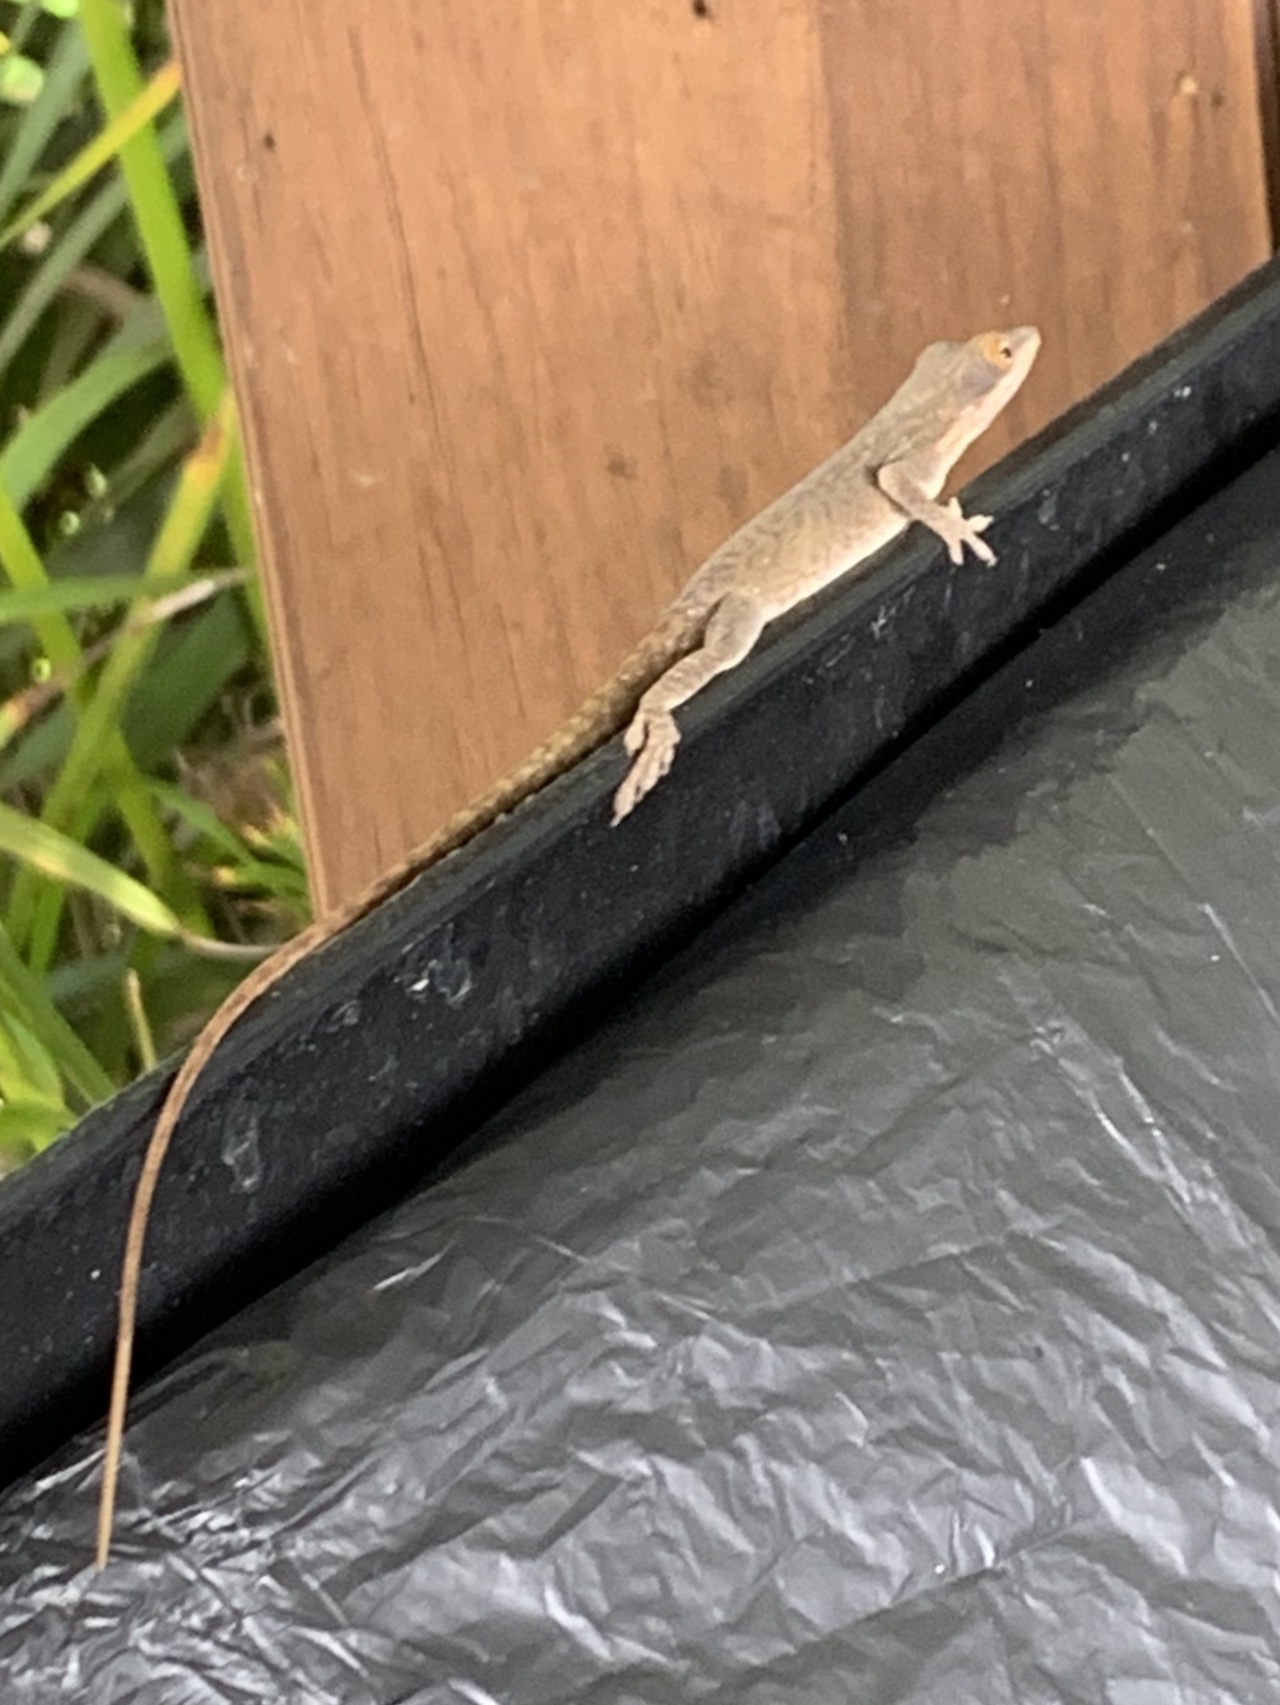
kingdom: Animalia
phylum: Chordata
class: Squamata
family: Dactyloidae
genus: Anolis
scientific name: Anolis allisoni
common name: Allison's anole
